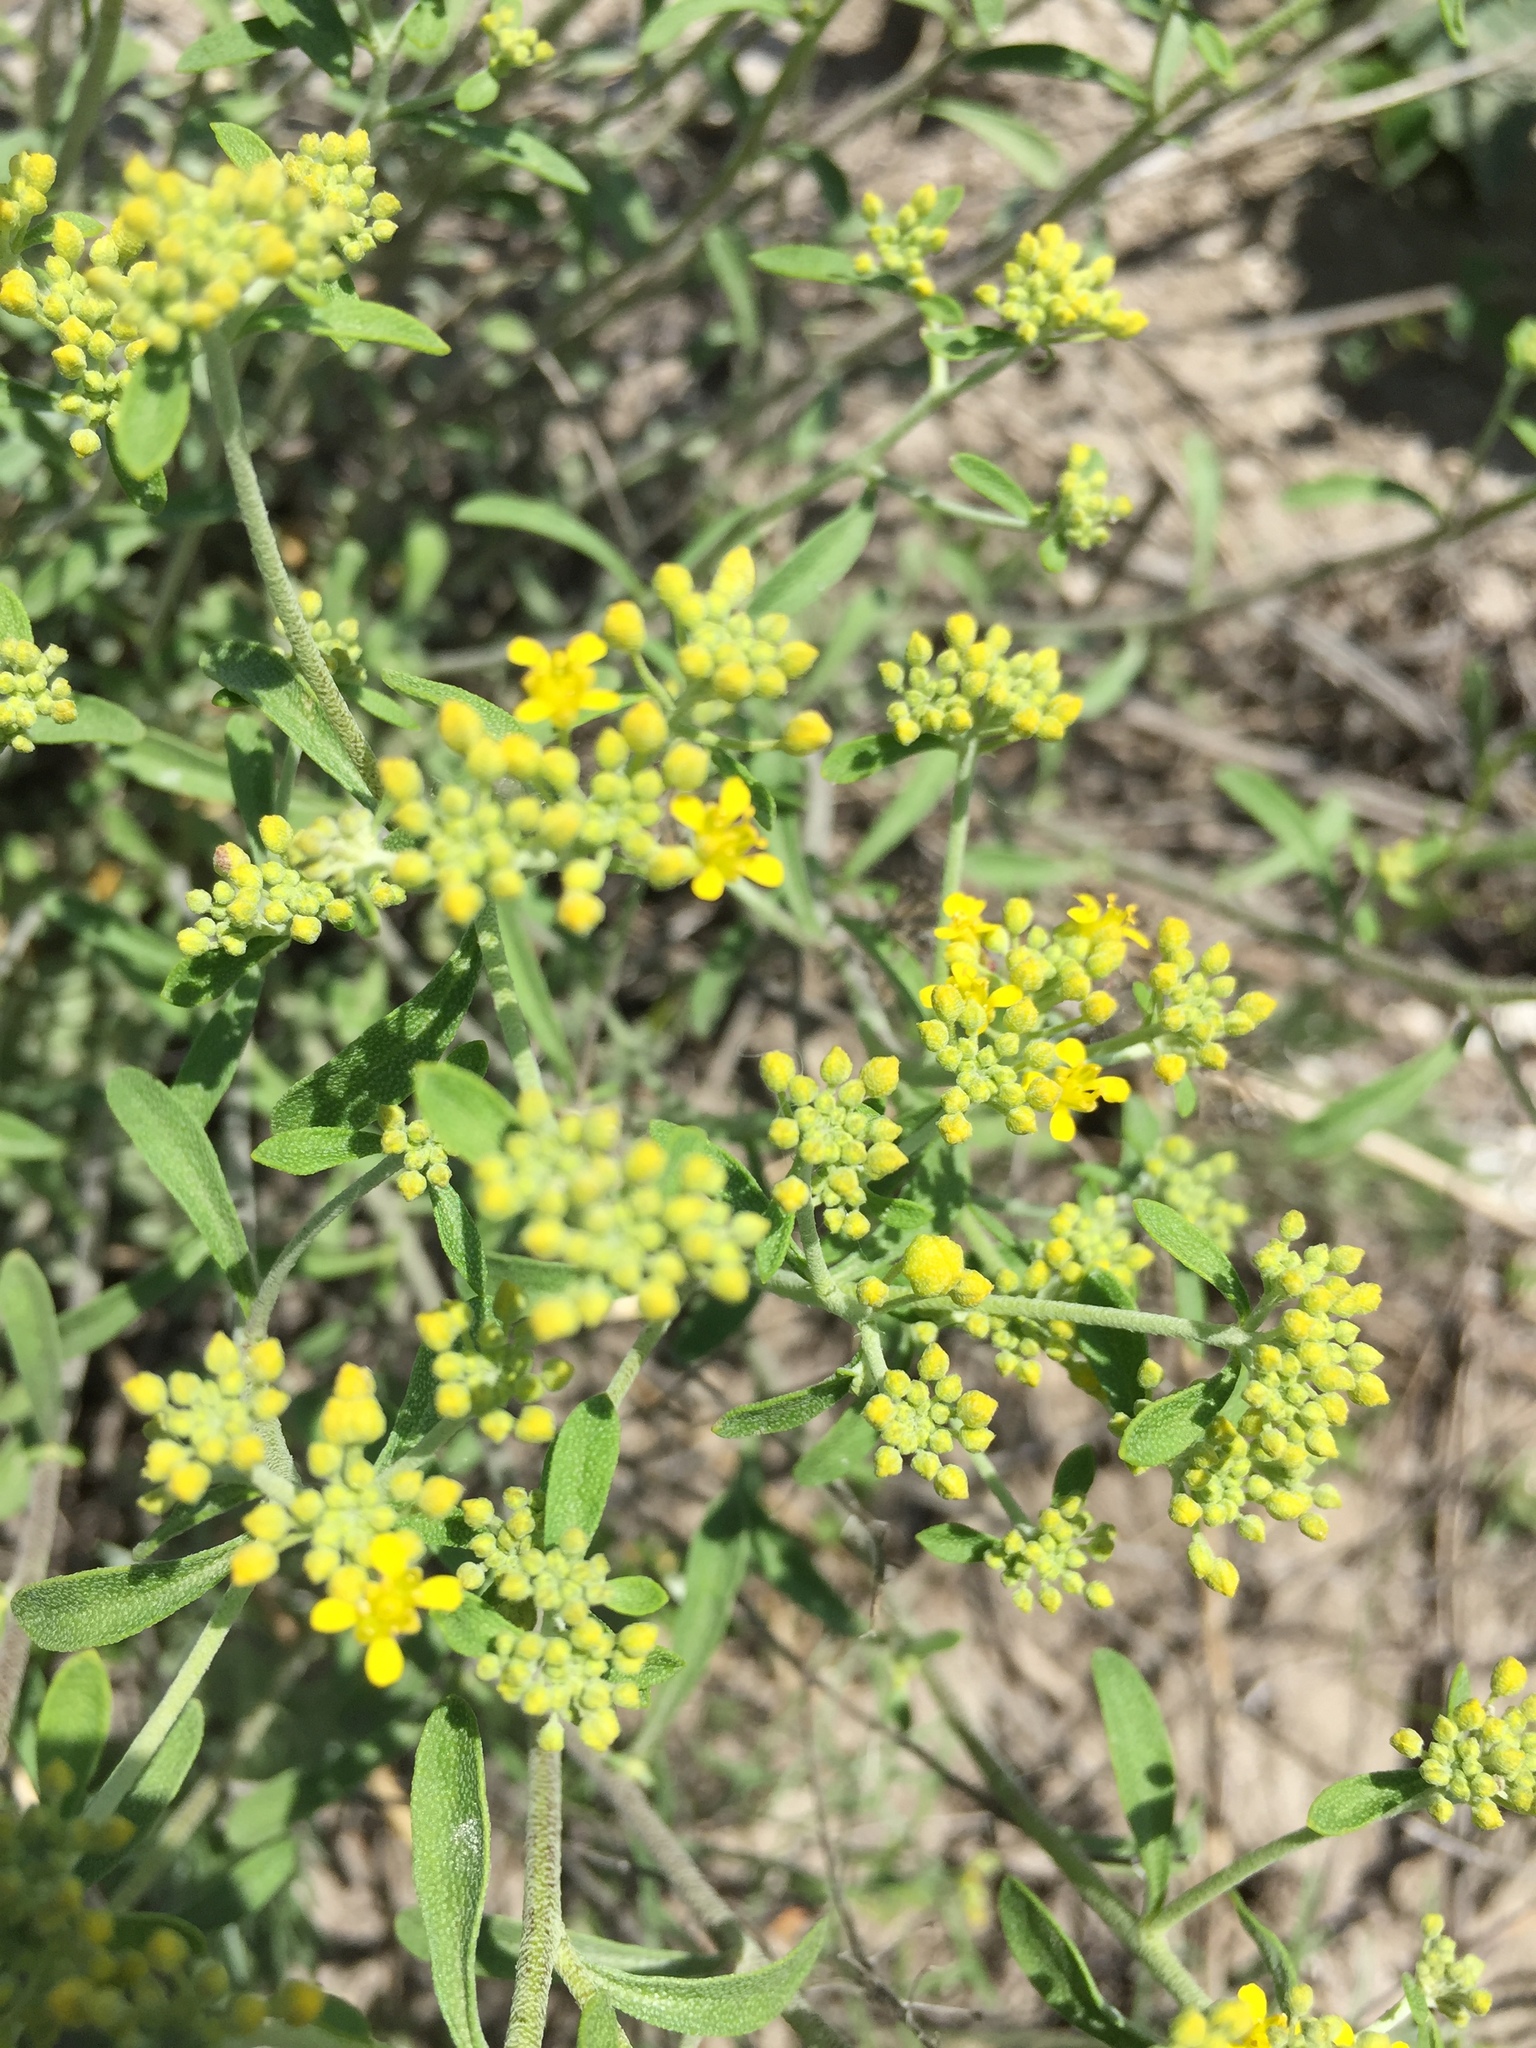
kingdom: Plantae
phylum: Tracheophyta
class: Magnoliopsida
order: Brassicales
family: Brassicaceae
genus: Odontarrhena
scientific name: Odontarrhena tortuosa
